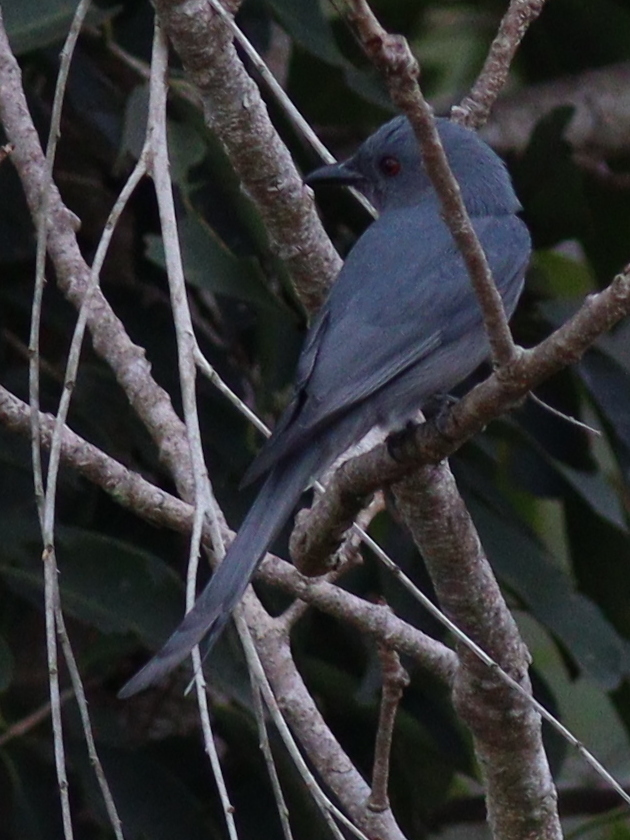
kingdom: Animalia
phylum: Chordata
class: Aves
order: Passeriformes
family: Dicruridae
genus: Dicrurus
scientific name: Dicrurus leucophaeus
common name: Ashy drongo
